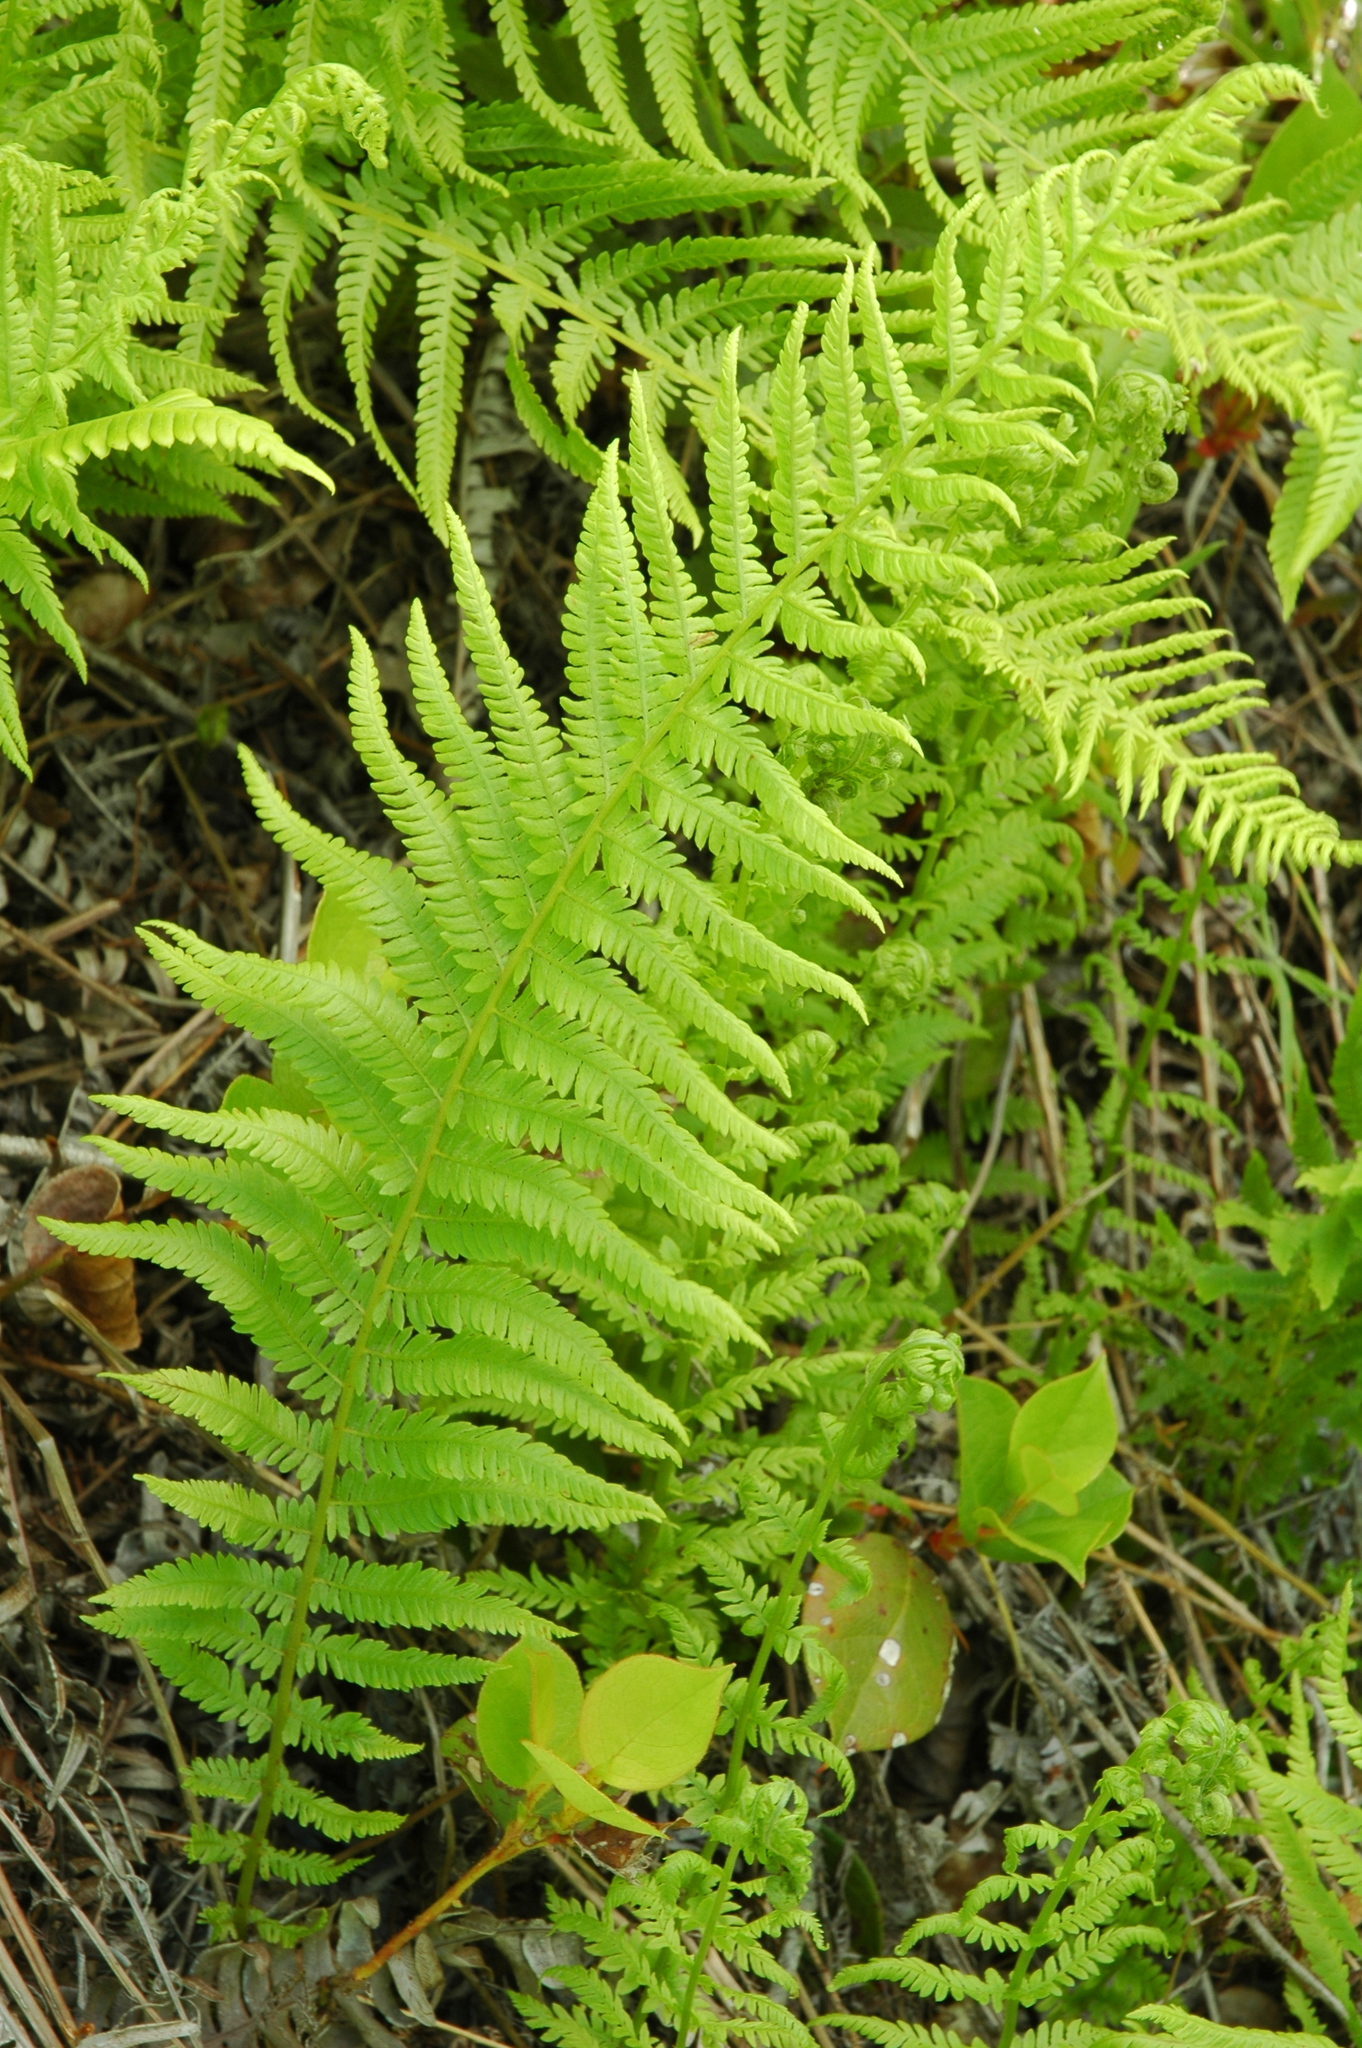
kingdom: Plantae
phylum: Tracheophyta
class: Polypodiopsida
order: Polypodiales
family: Thelypteridaceae
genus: Amauropelta
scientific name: Amauropelta nevadensis
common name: Nevada marsh fern
